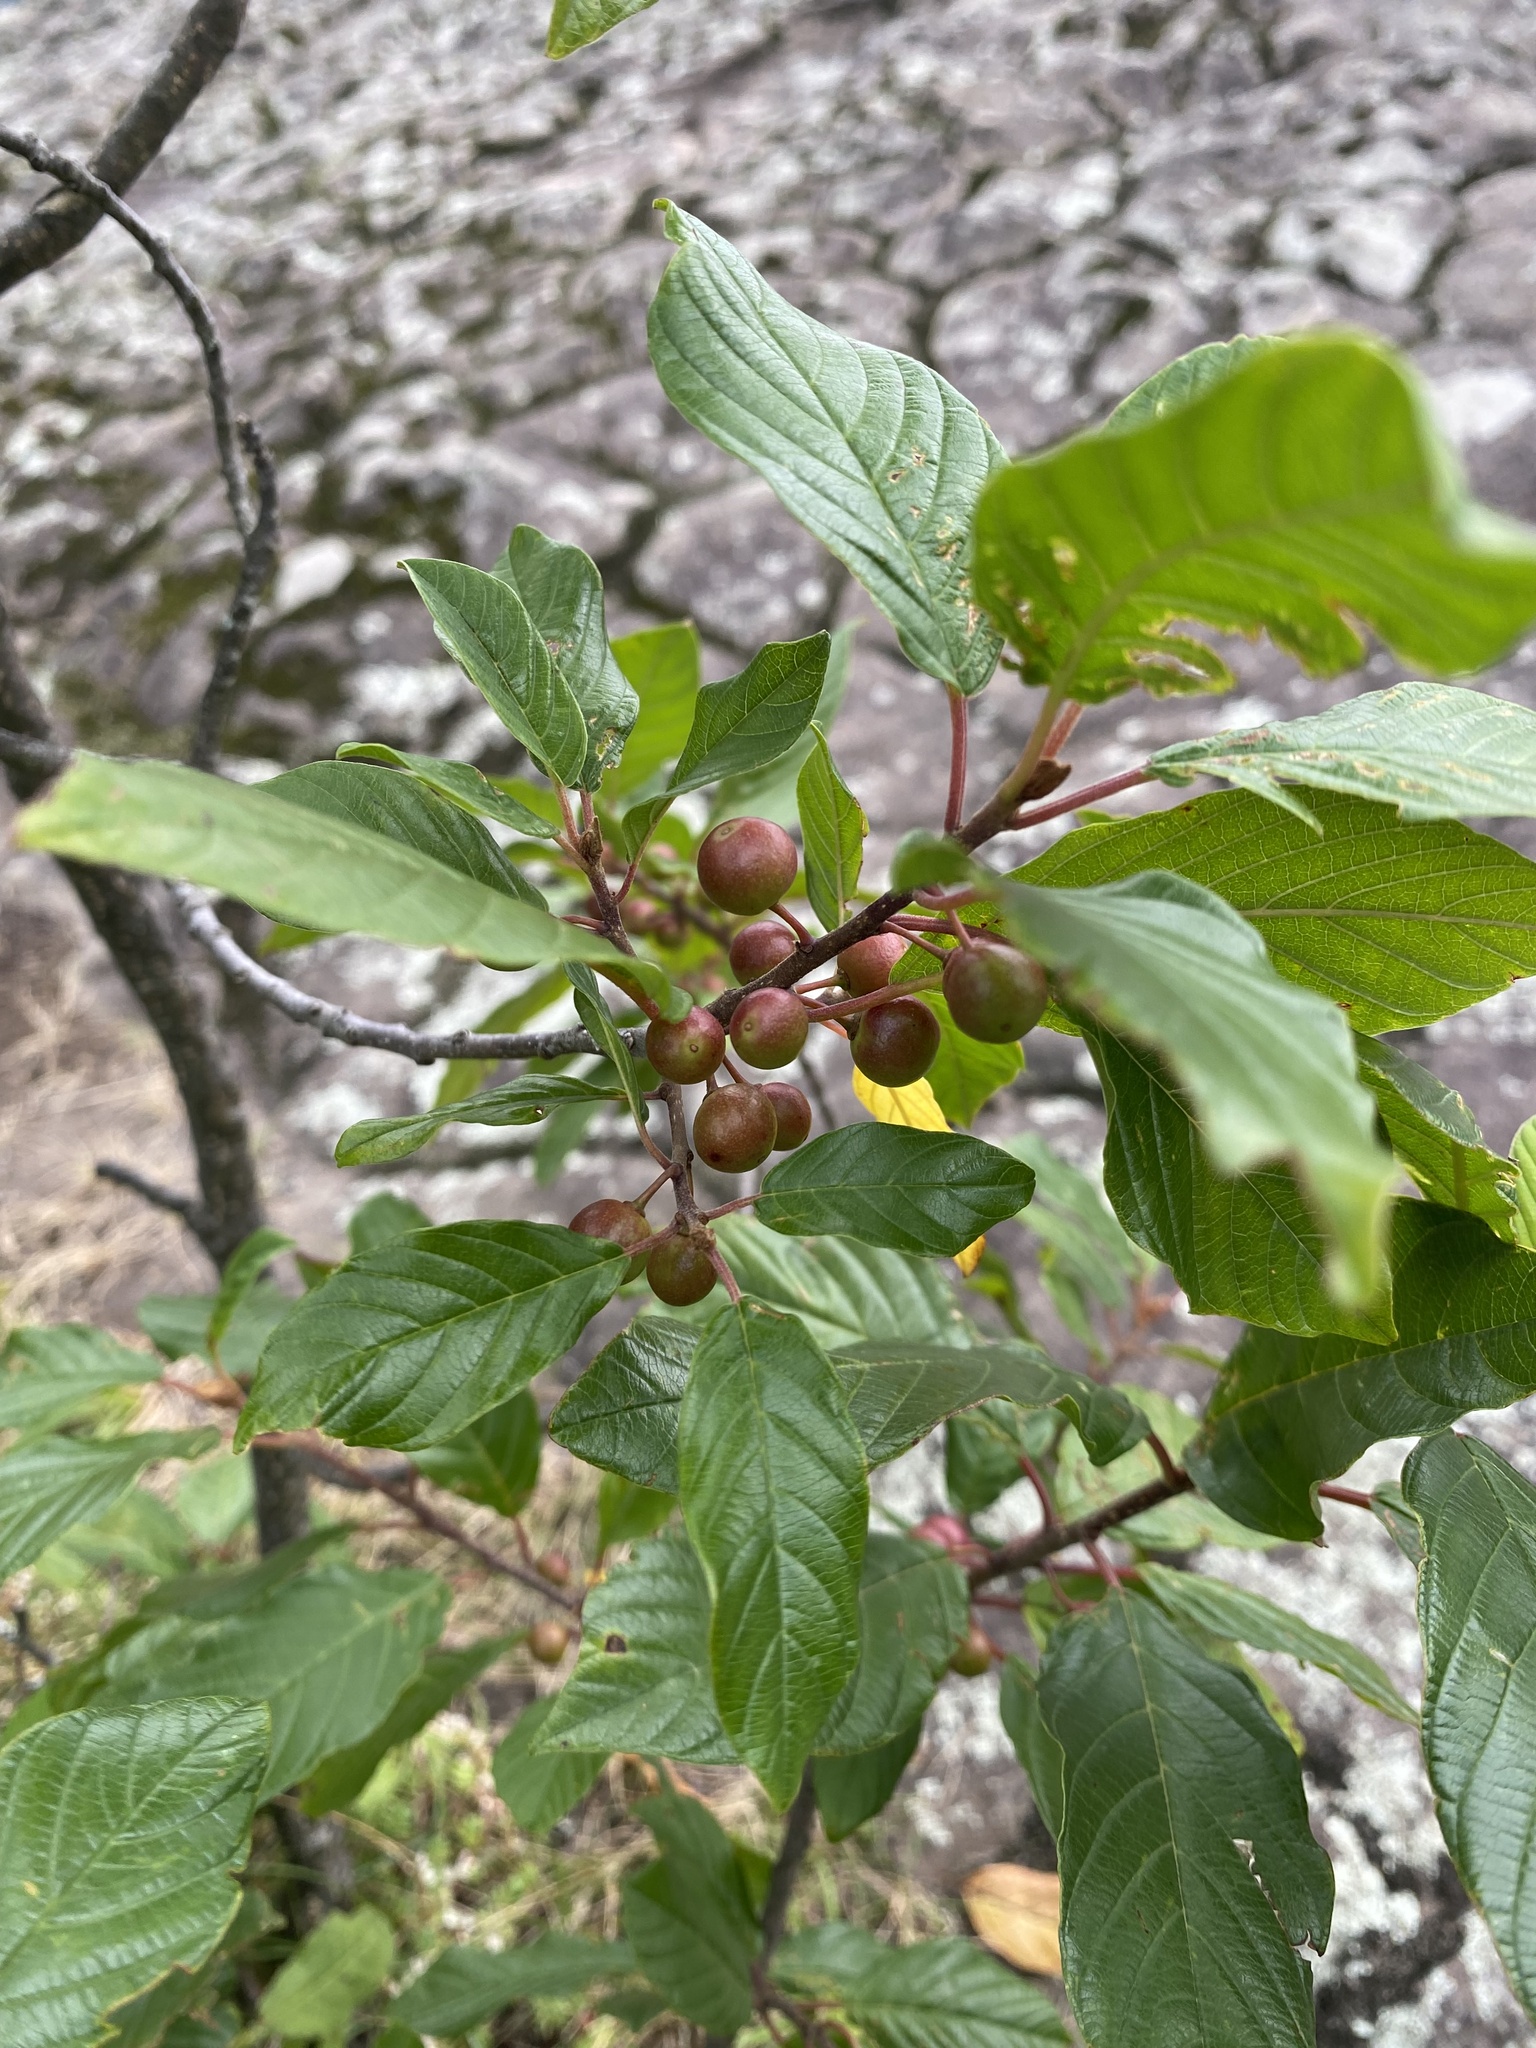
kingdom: Plantae
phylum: Tracheophyta
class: Magnoliopsida
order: Rosales
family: Rhamnaceae
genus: Frangula
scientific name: Frangula alnus
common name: Alder buckthorn
